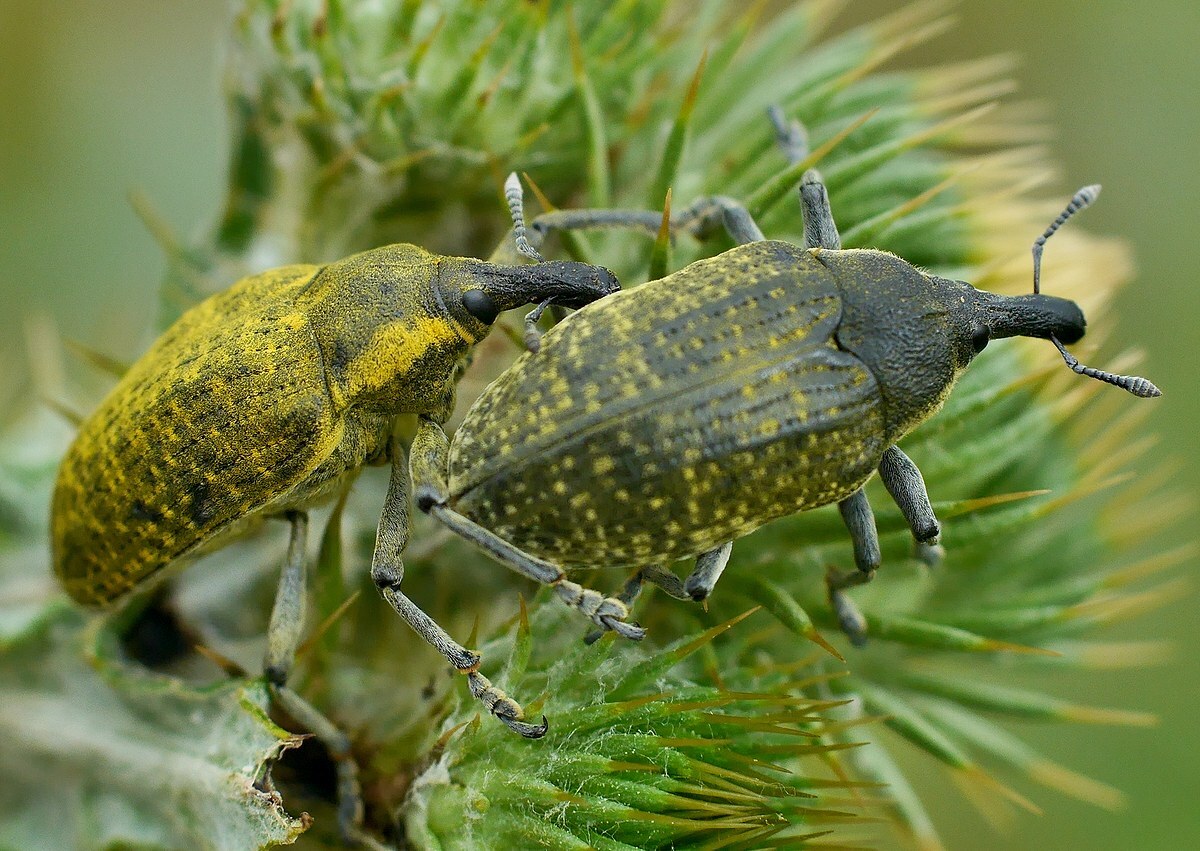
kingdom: Animalia
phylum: Arthropoda
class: Insecta
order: Coleoptera
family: Curculionidae
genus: Larinus
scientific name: Larinus latus
